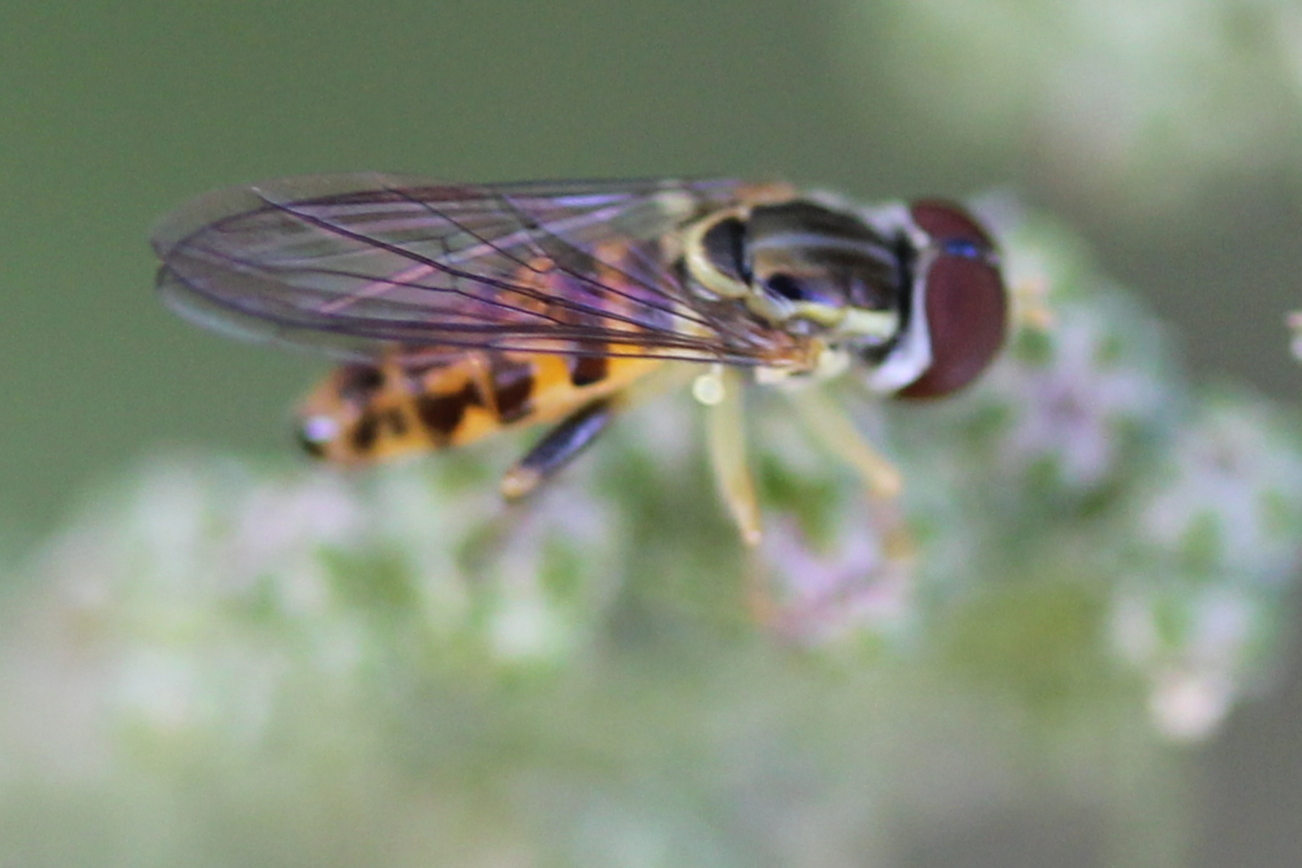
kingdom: Animalia
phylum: Arthropoda
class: Insecta
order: Diptera
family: Syrphidae
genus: Toxomerus
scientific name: Toxomerus geminatus
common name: Eastern calligrapher
